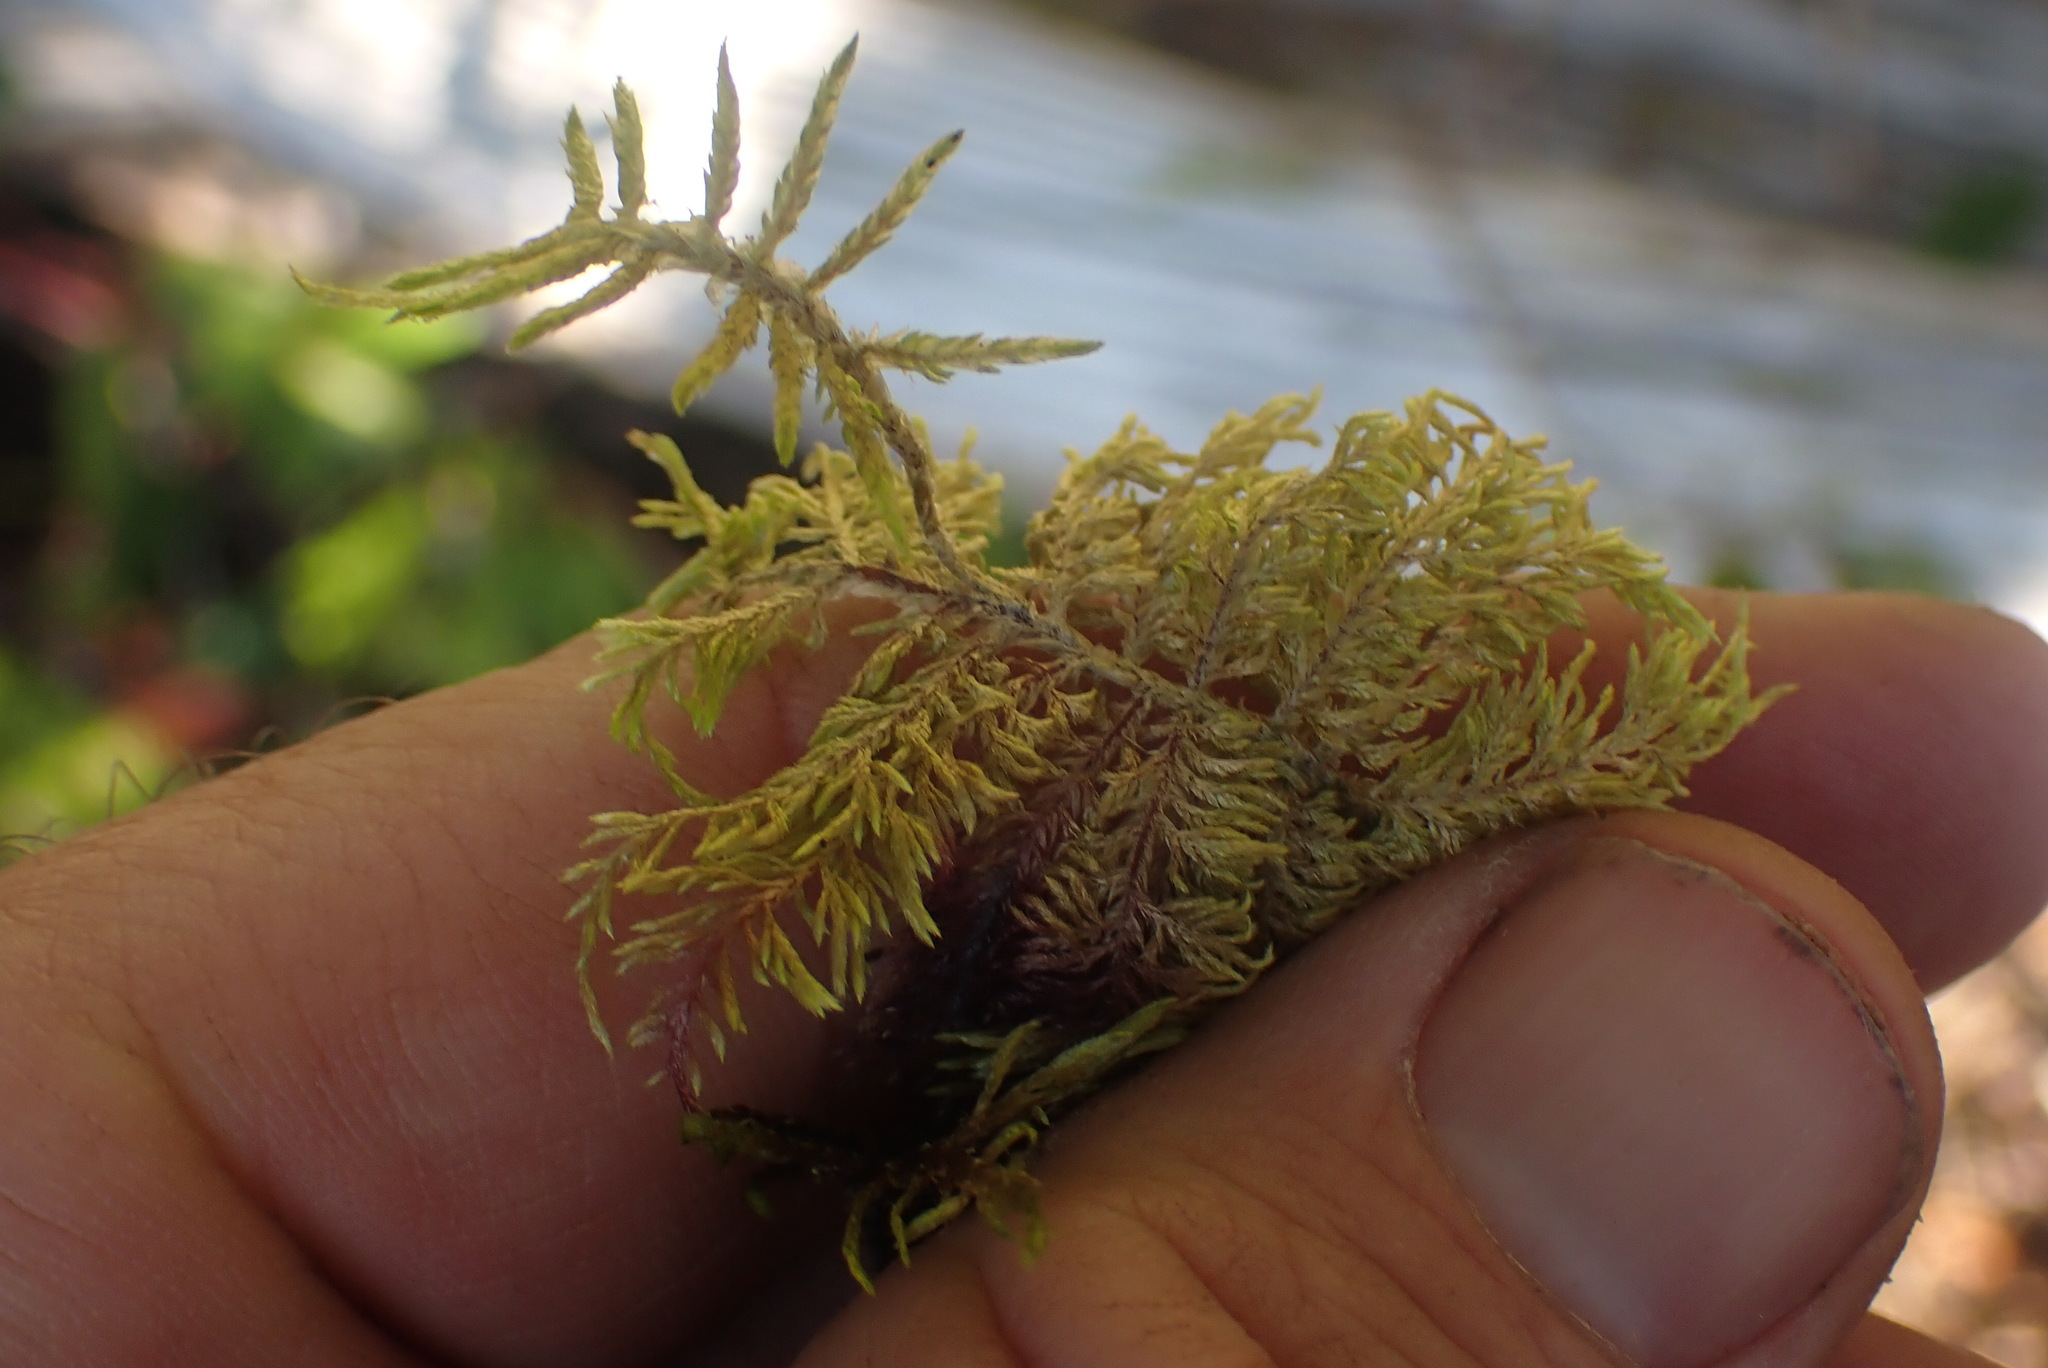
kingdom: Plantae
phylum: Bryophyta
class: Bryopsida
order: Hypnales
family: Hylocomiaceae
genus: Hylocomium
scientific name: Hylocomium splendens
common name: Stairstep moss
